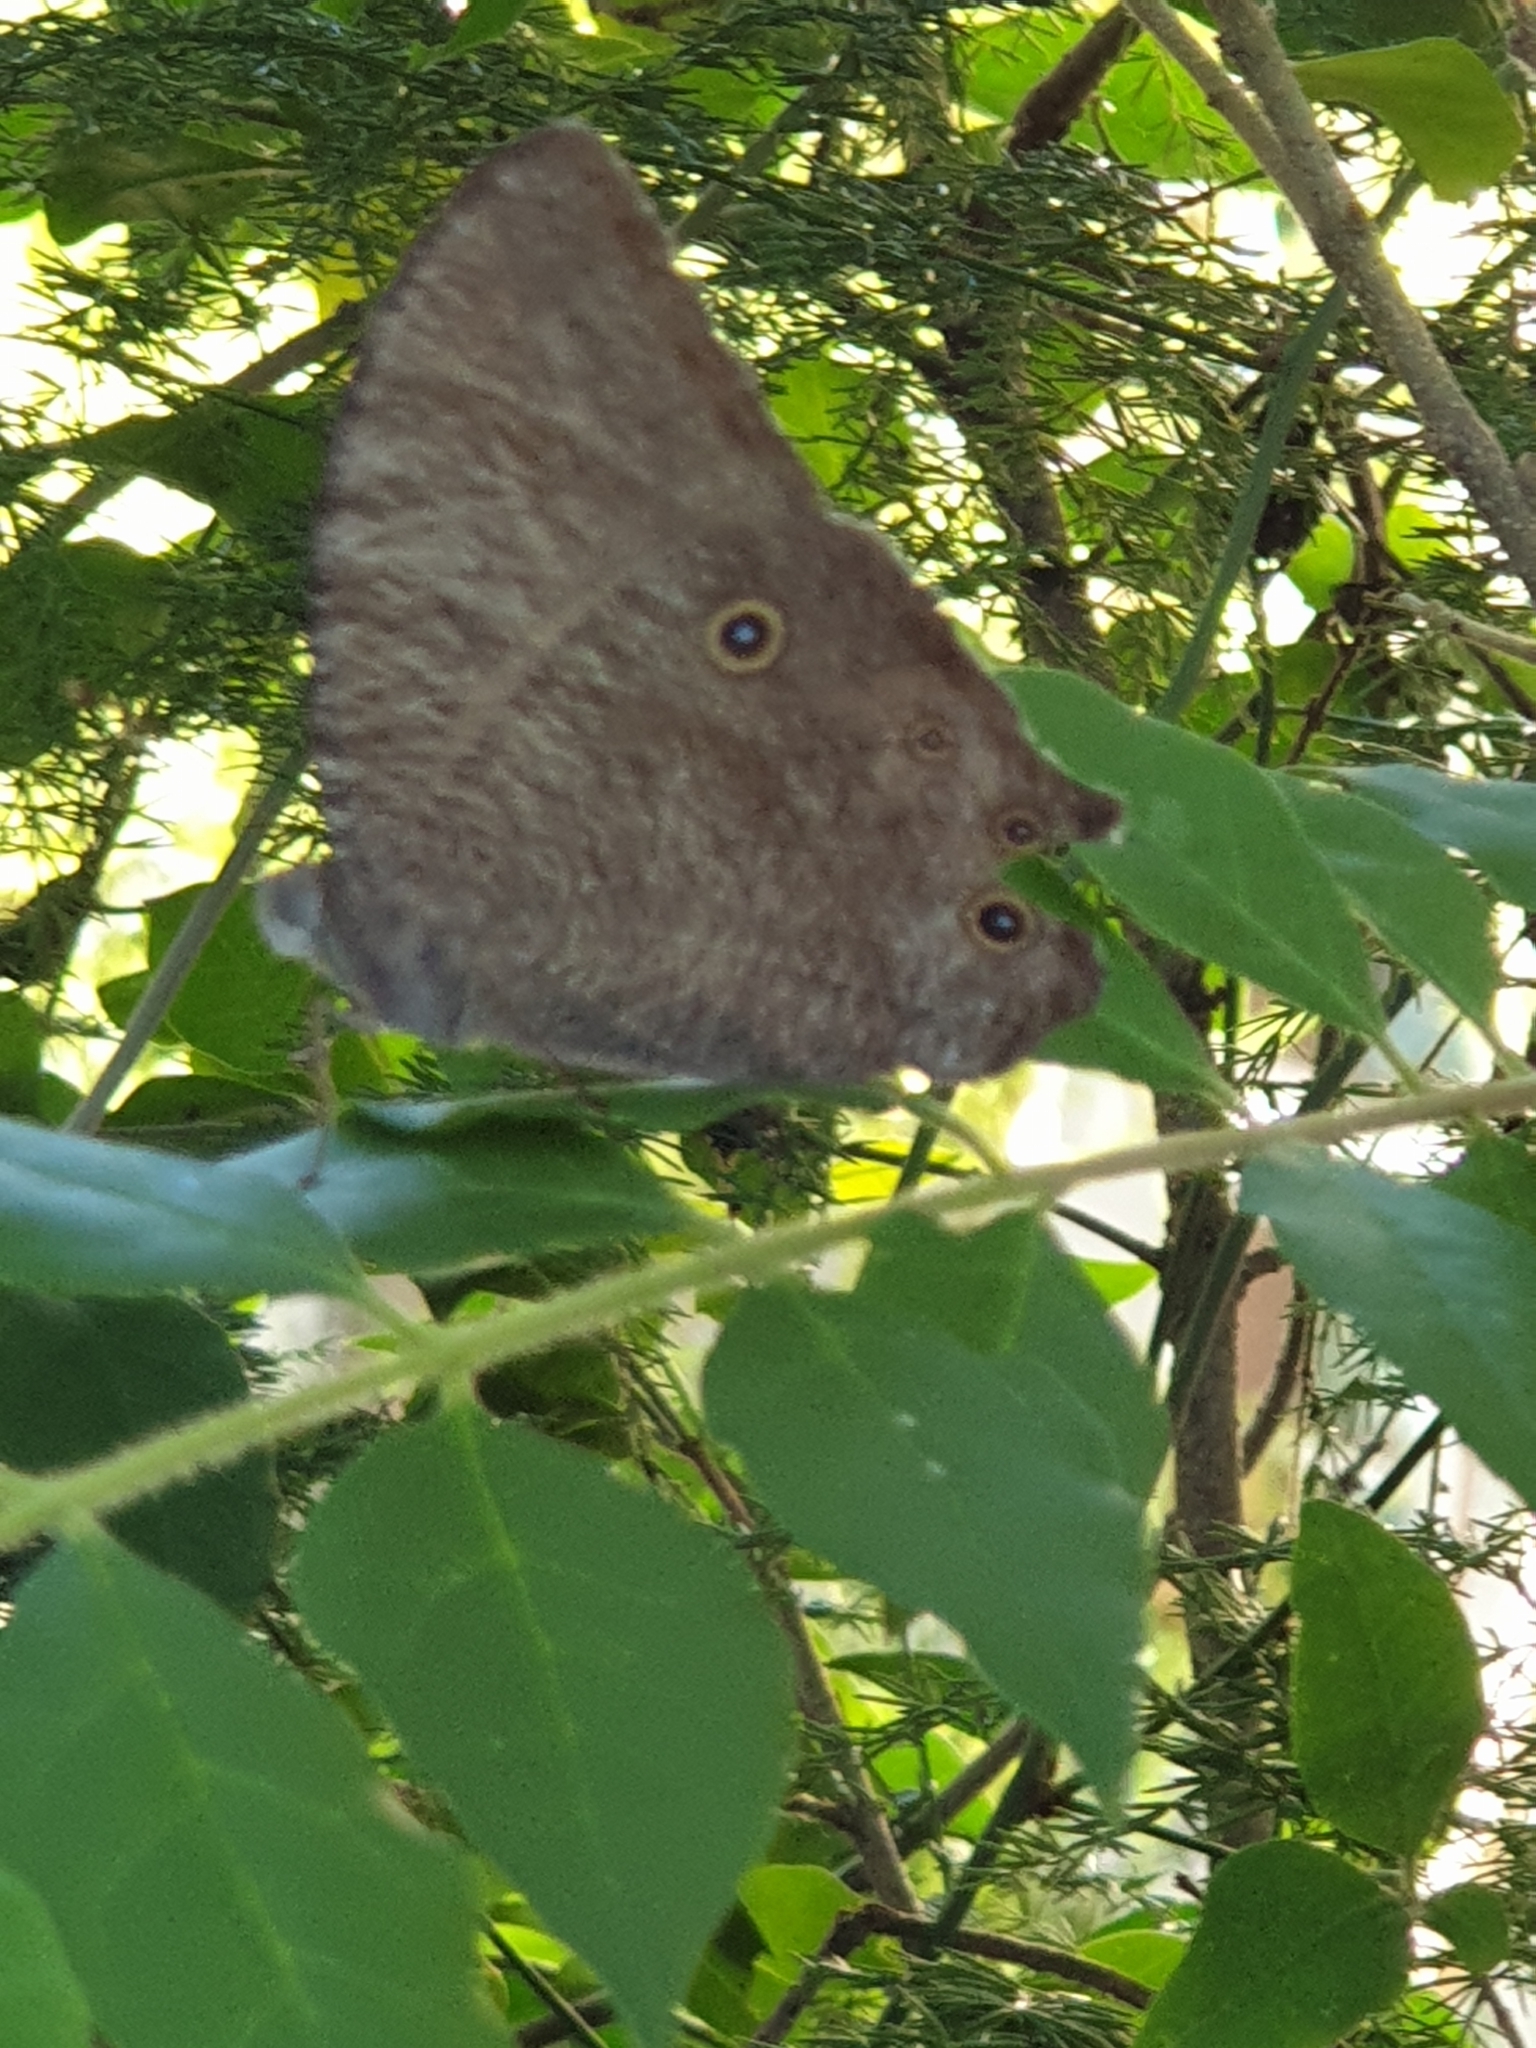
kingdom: Animalia
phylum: Arthropoda
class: Insecta
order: Lepidoptera
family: Nymphalidae
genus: Melanitis
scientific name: Melanitis leda
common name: Twilight brown
